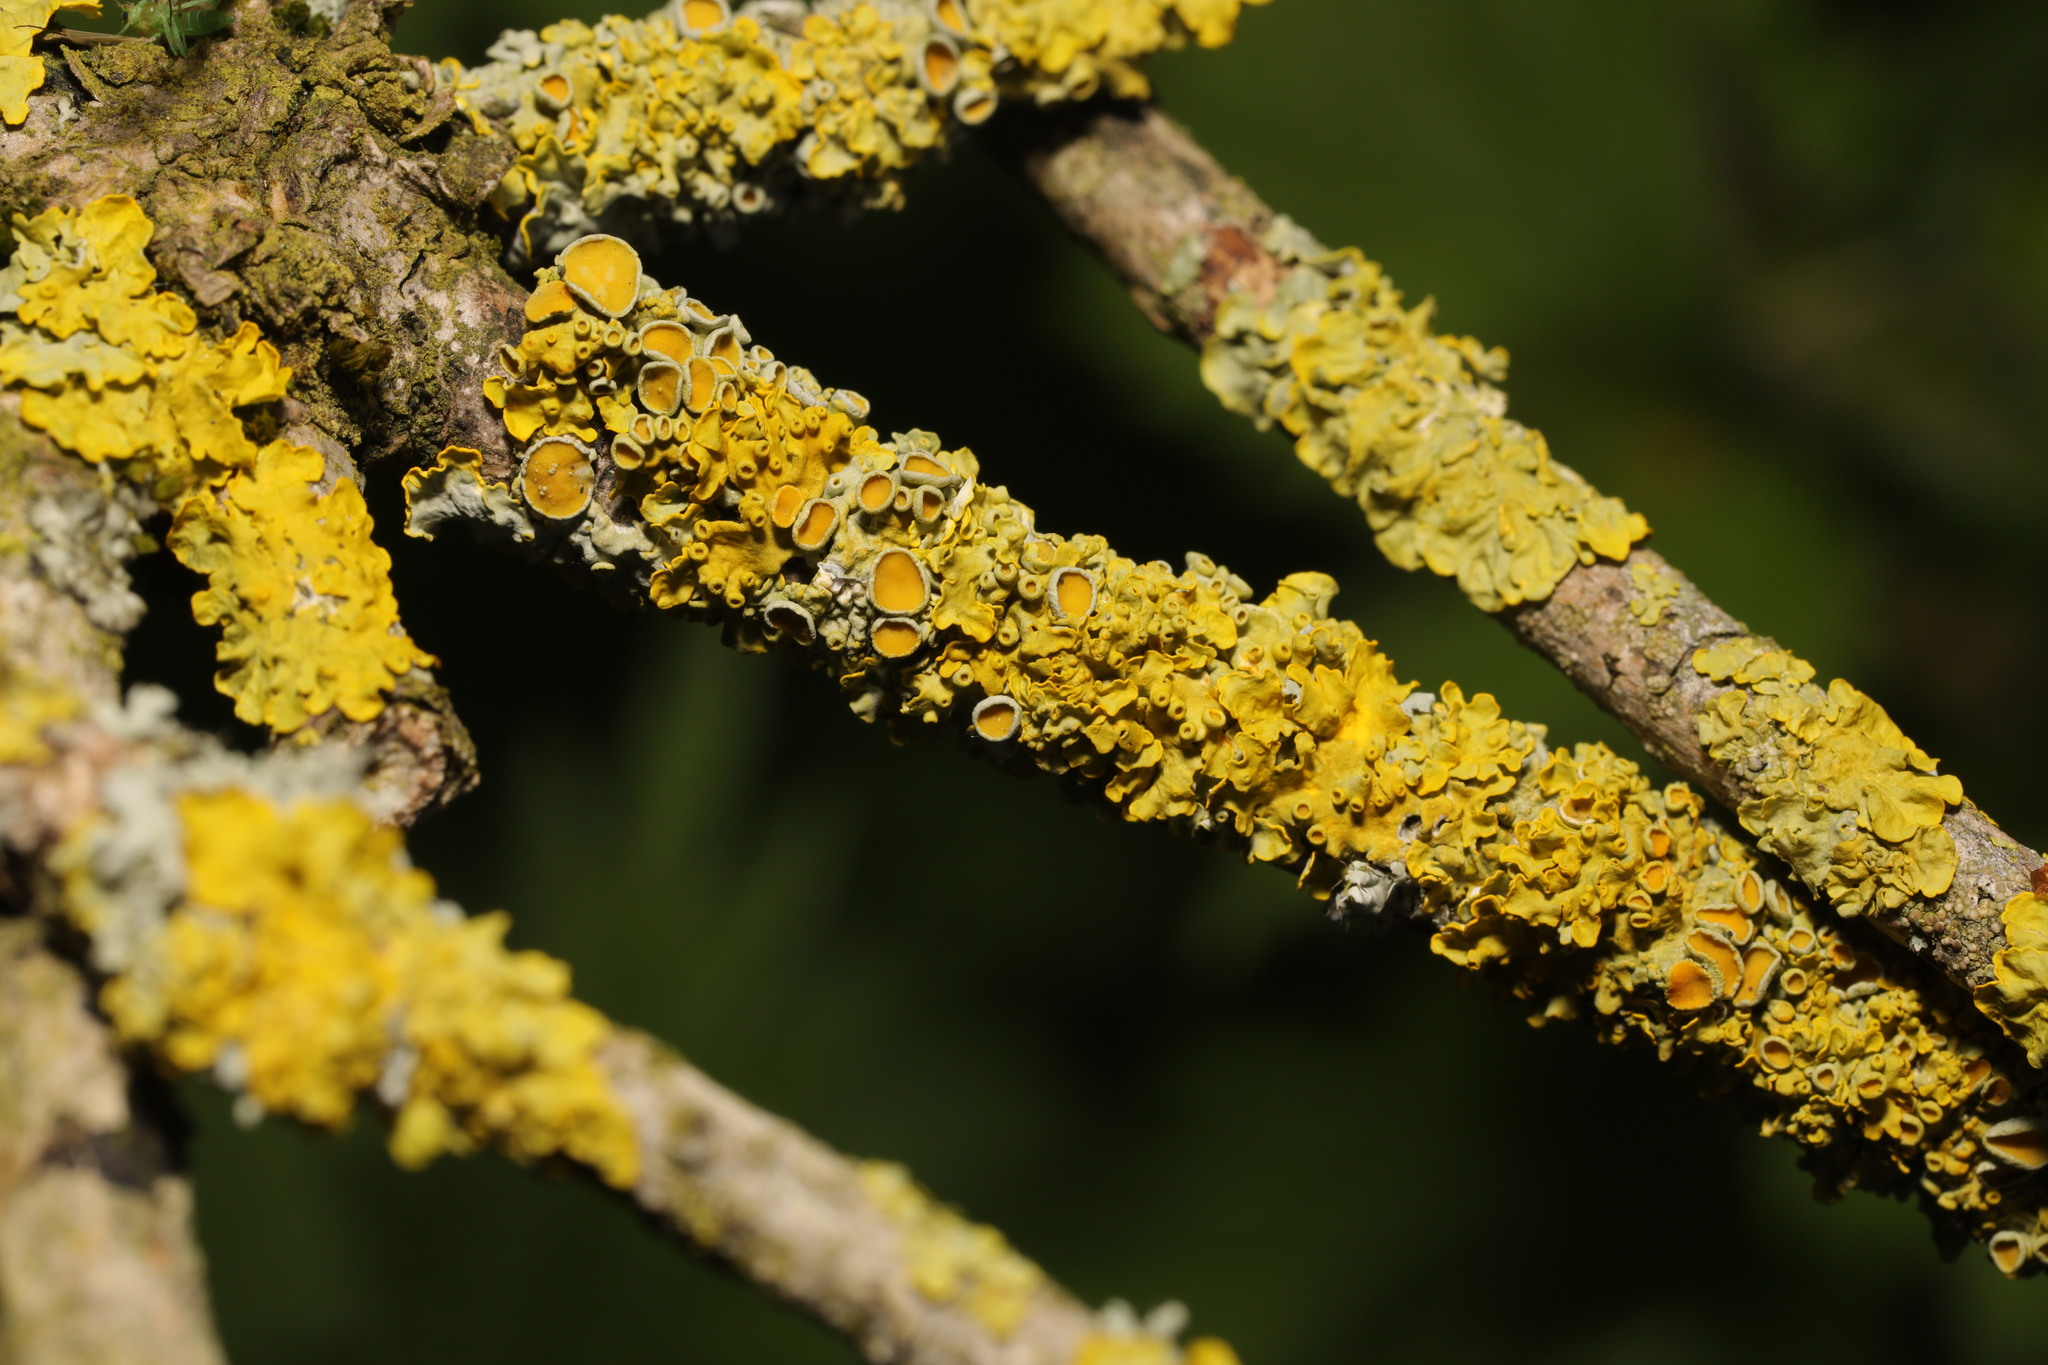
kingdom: Fungi
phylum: Ascomycota
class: Lecanoromycetes
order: Teloschistales
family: Teloschistaceae
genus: Xanthoria
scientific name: Xanthoria parietina
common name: Common orange lichen
